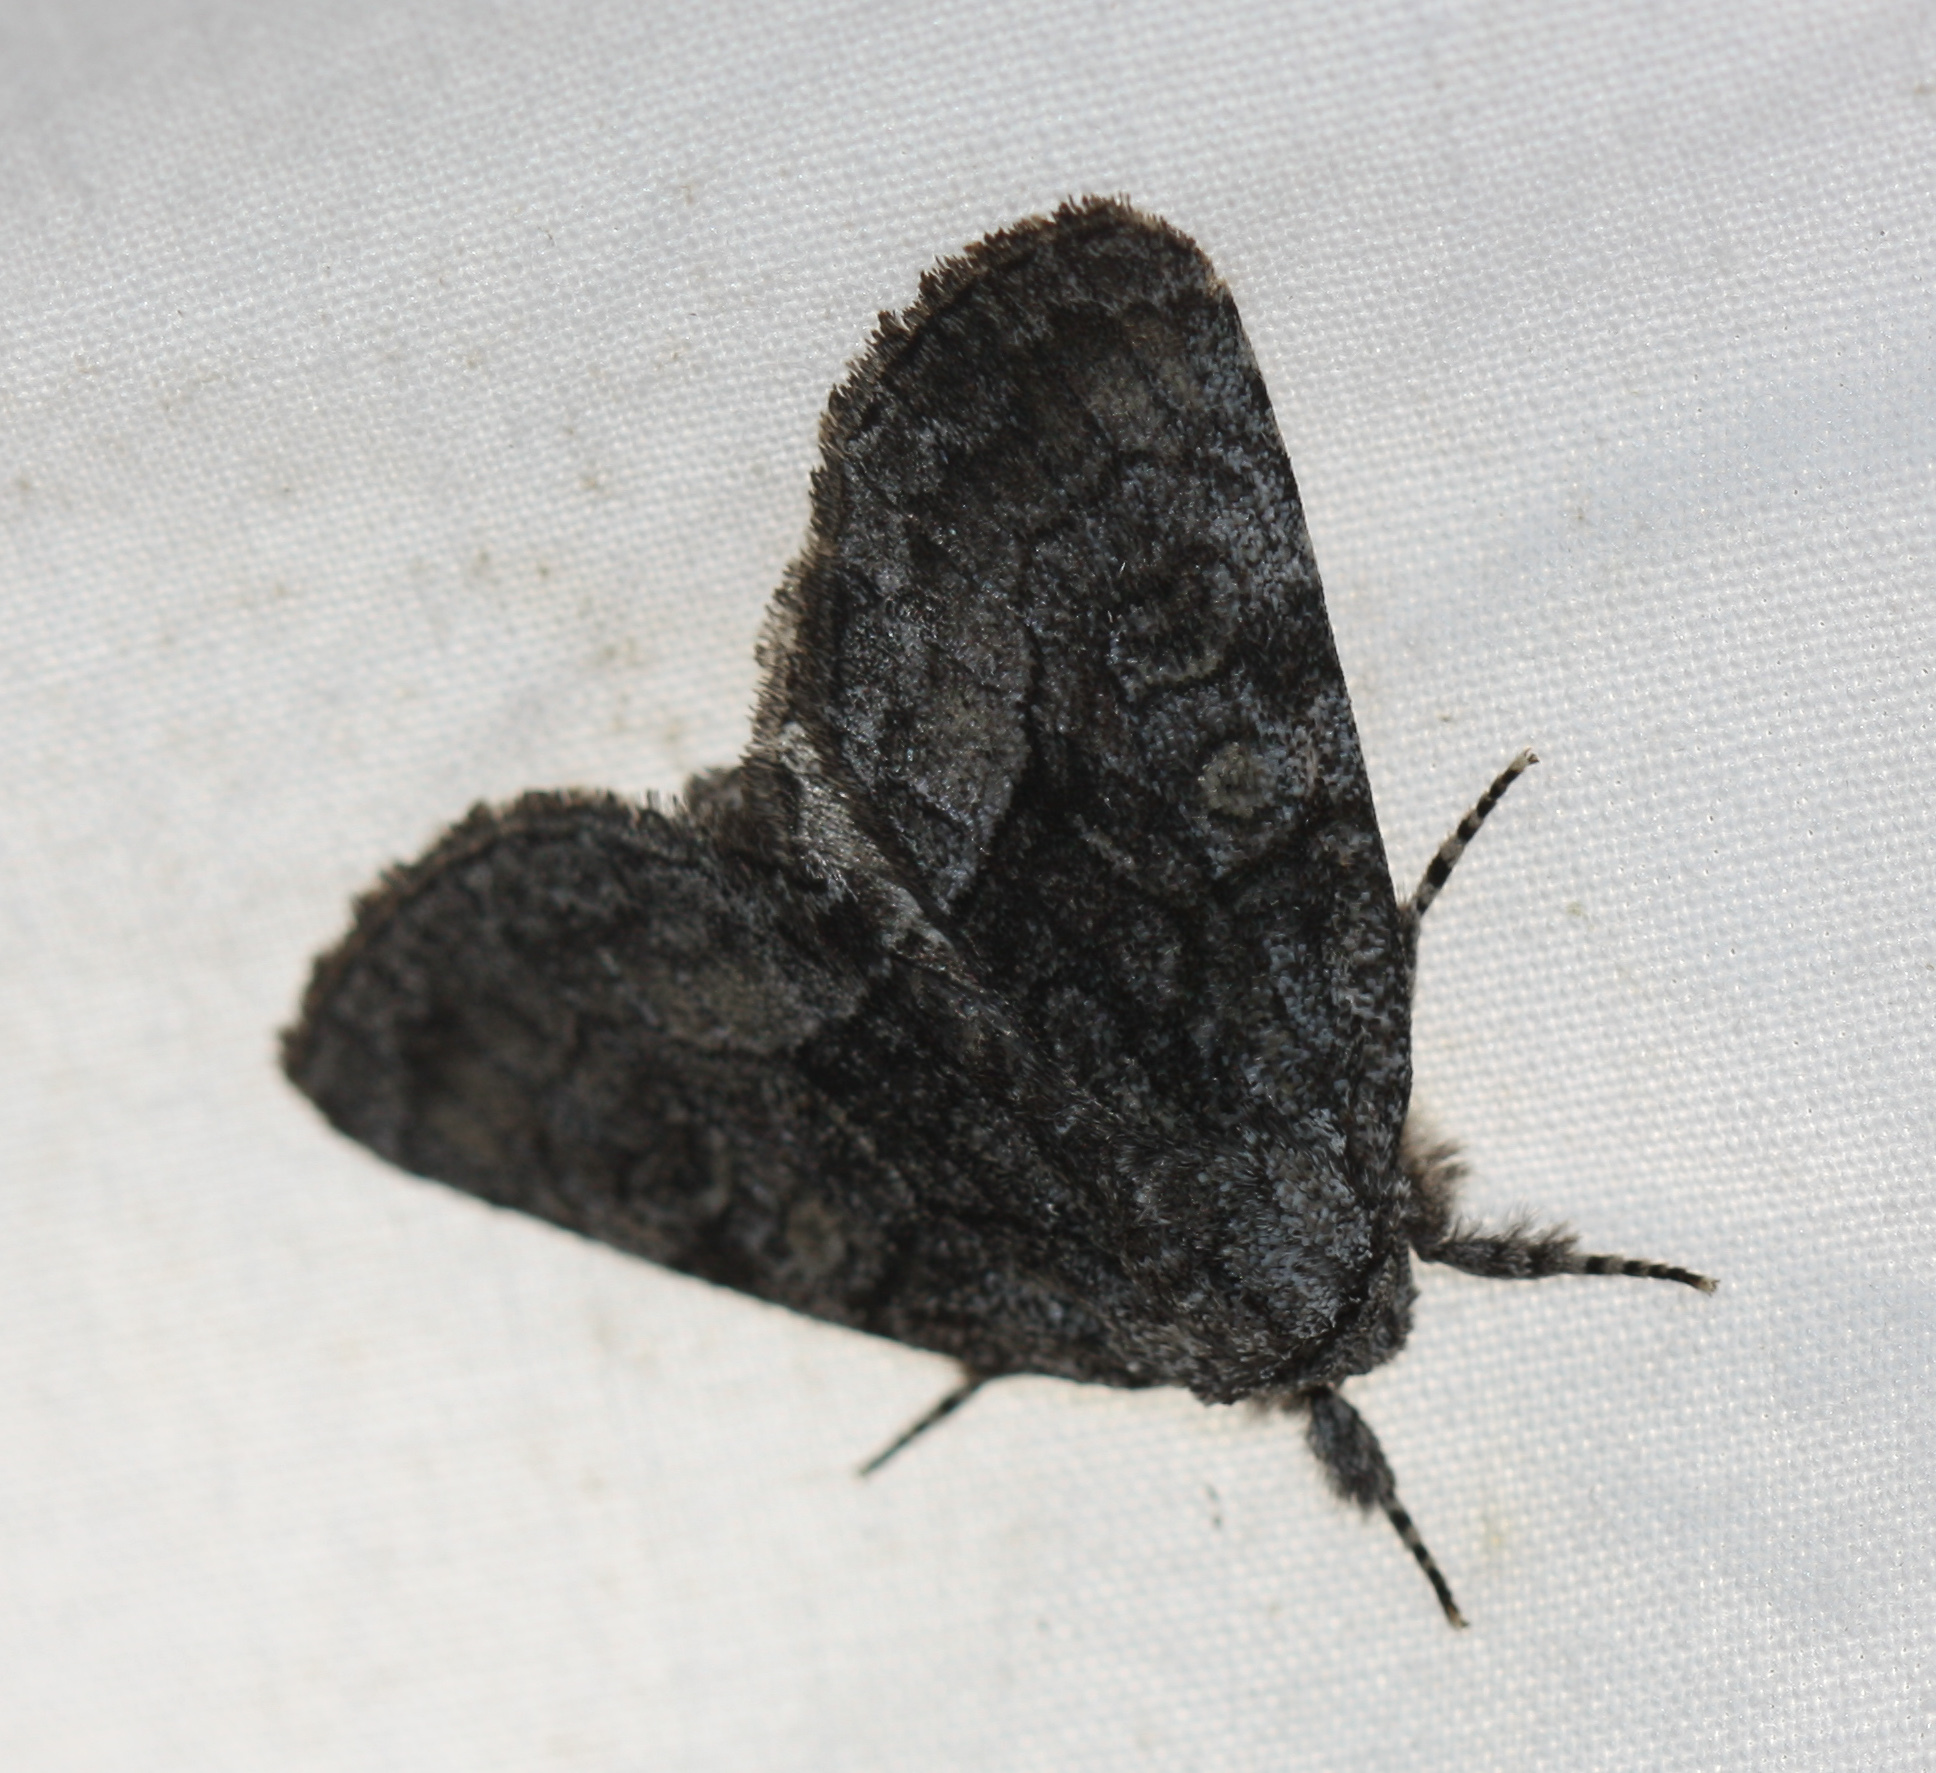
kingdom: Animalia
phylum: Arthropoda
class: Insecta
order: Lepidoptera
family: Noctuidae
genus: Raphia
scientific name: Raphia frater
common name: Brother
